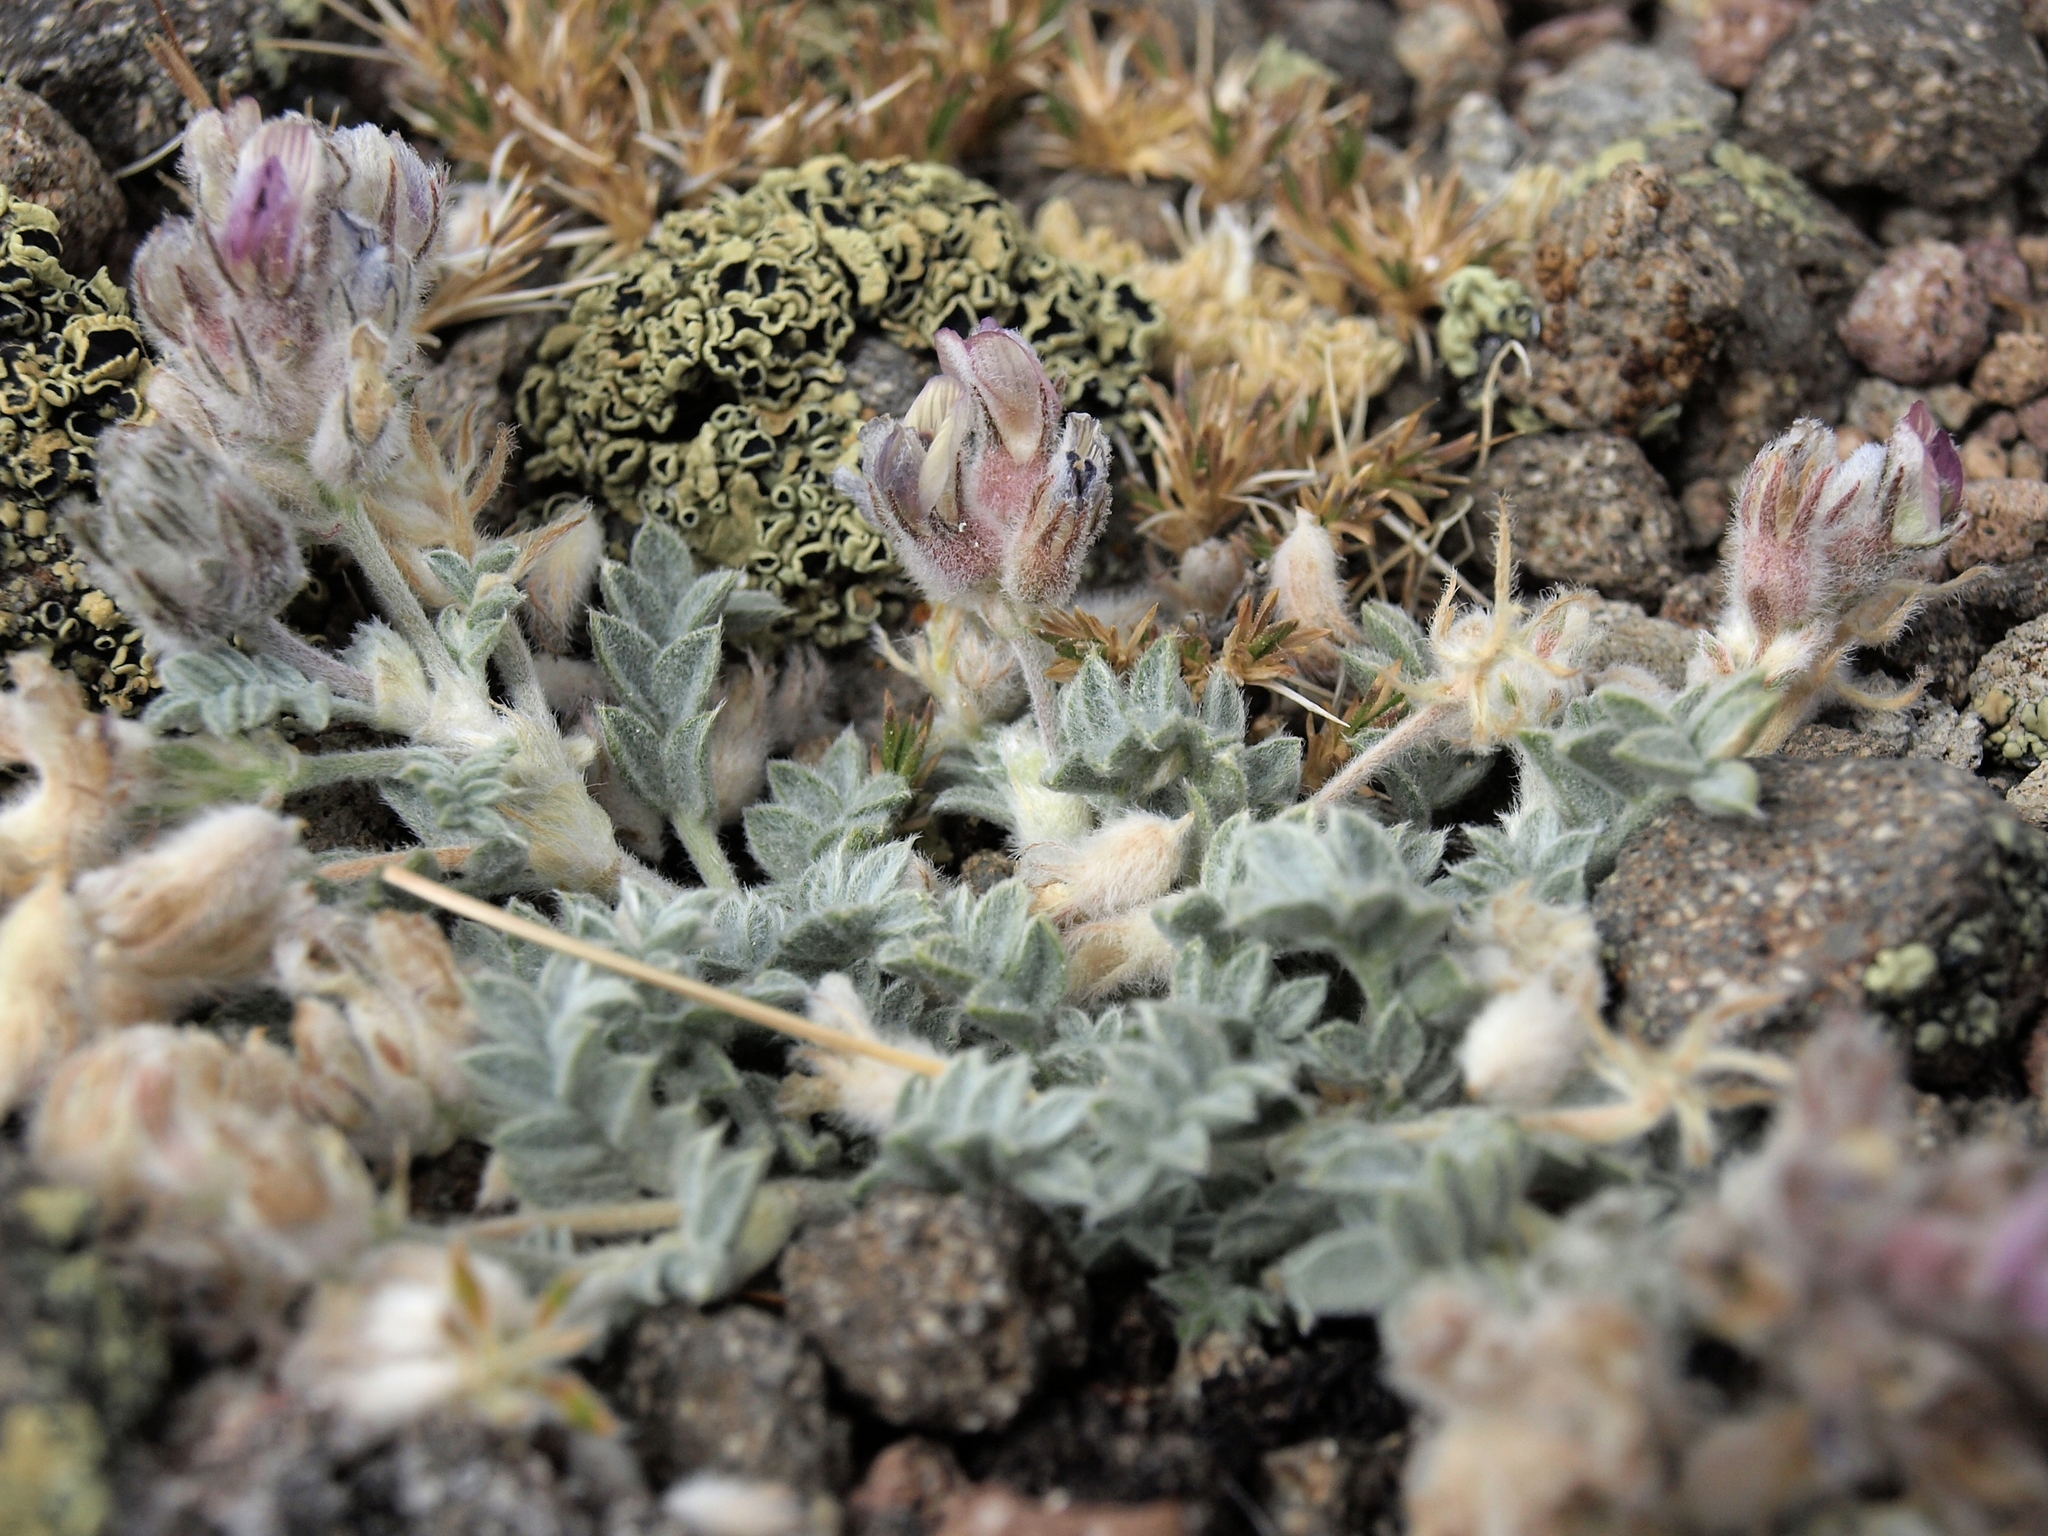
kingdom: Plantae
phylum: Tracheophyta
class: Magnoliopsida
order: Fabales
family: Fabaceae
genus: Astragalus
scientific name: Astragalus austiniae
